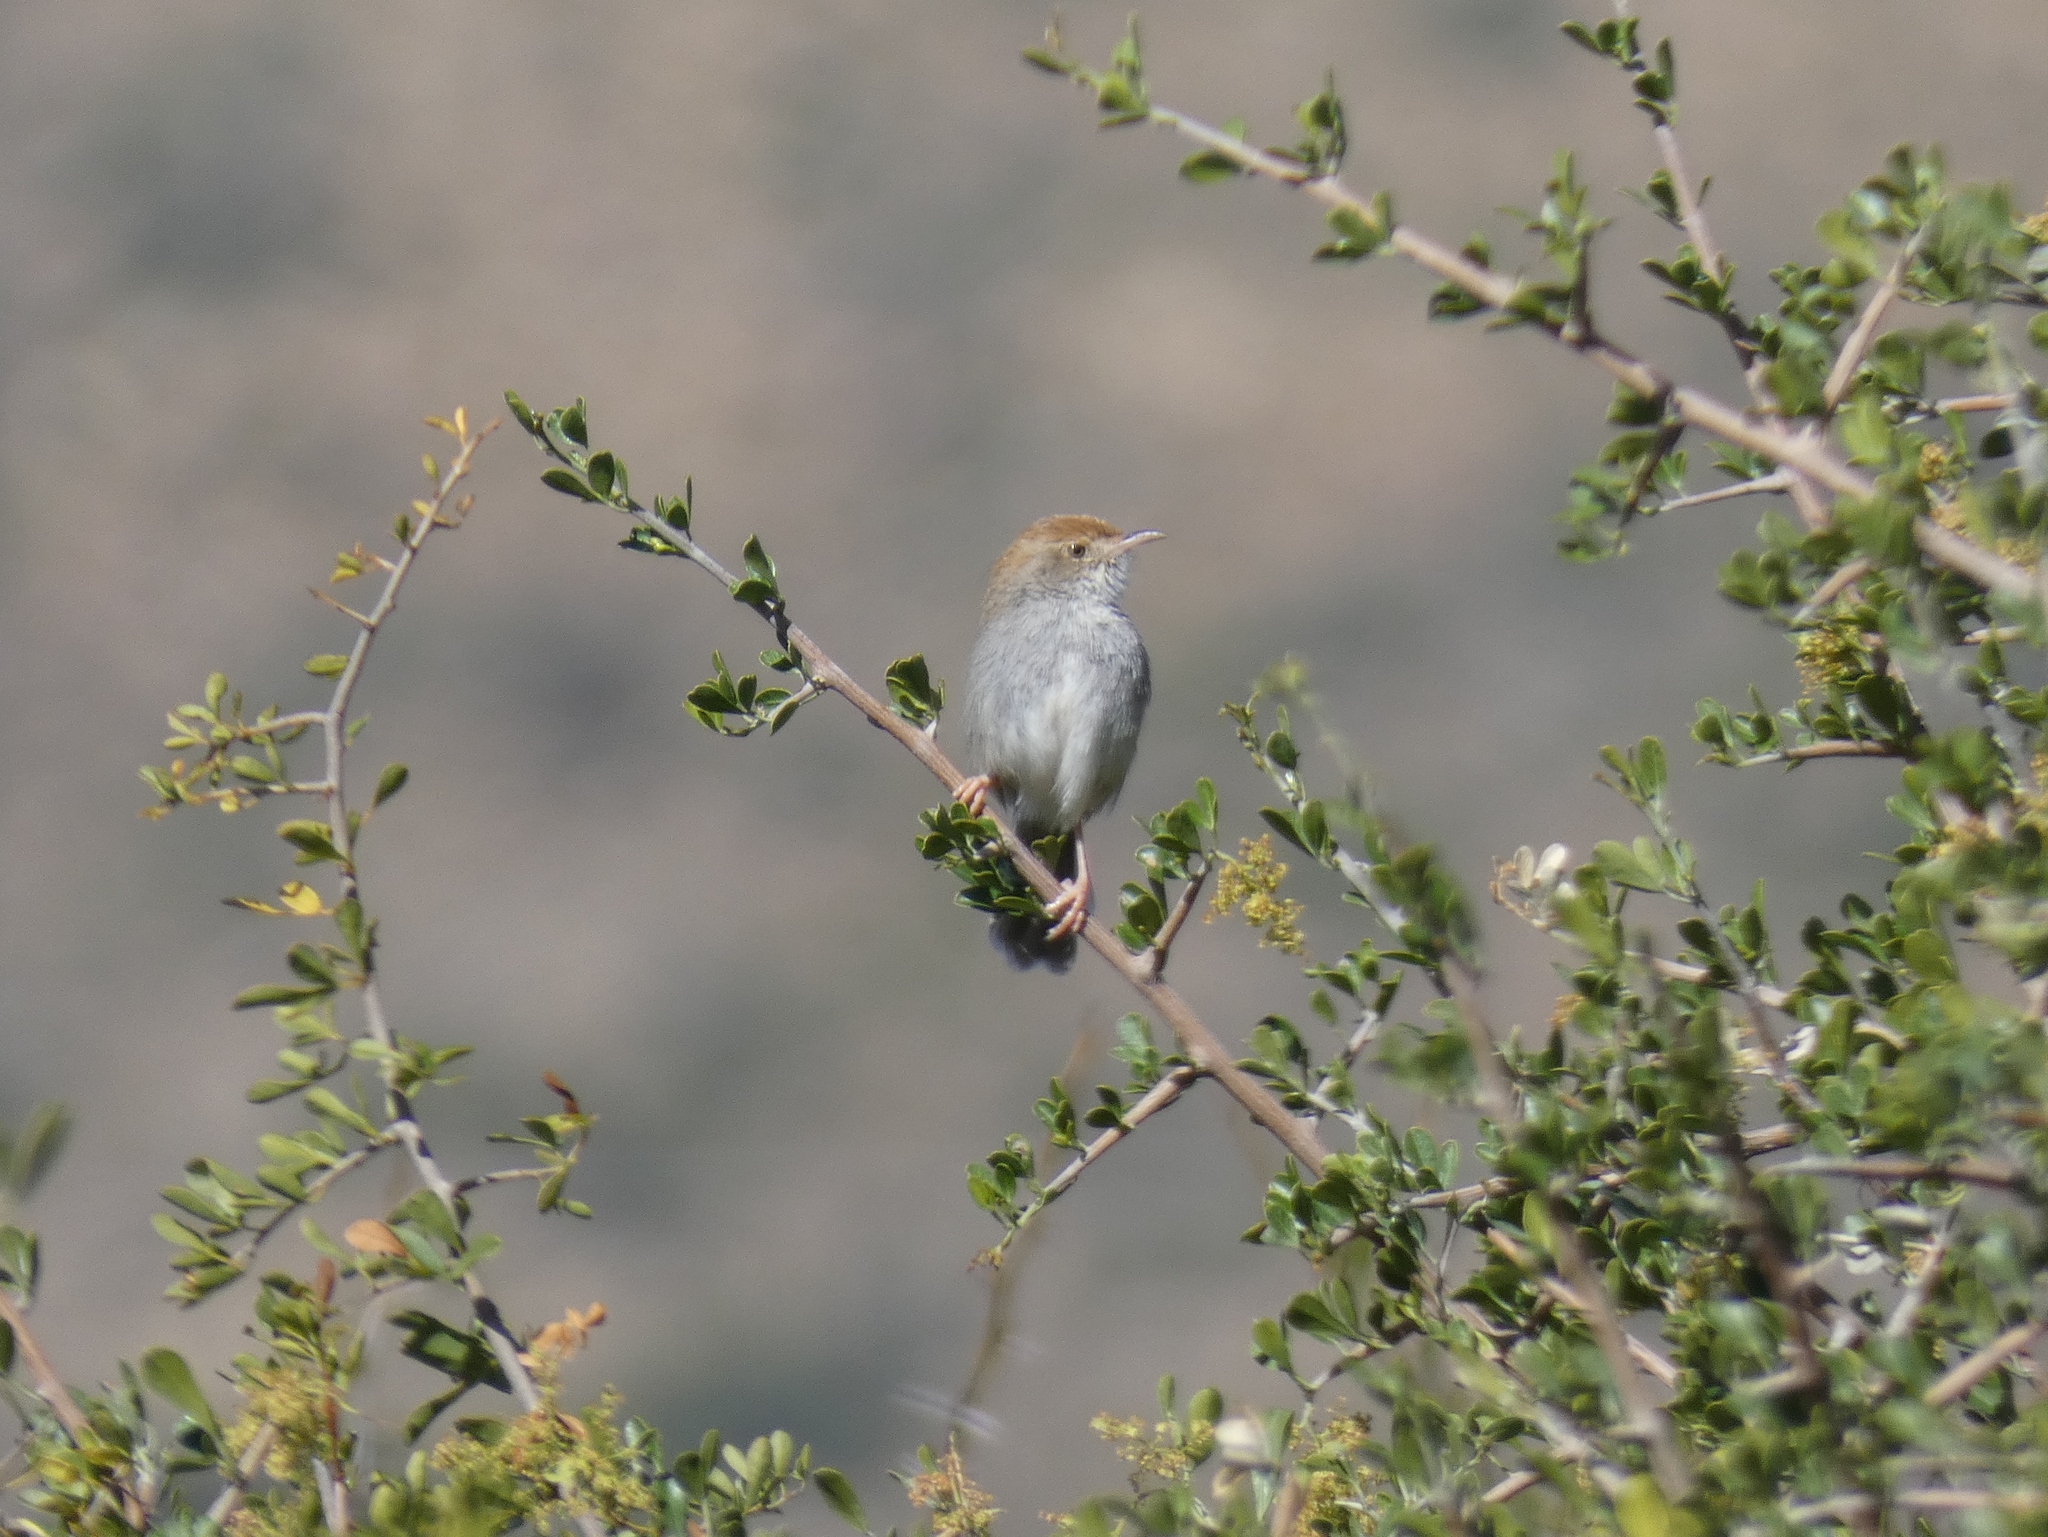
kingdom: Animalia
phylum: Chordata
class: Aves
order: Passeriformes
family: Cisticolidae
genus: Cisticola
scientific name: Cisticola fulvicapilla
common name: Neddicky
